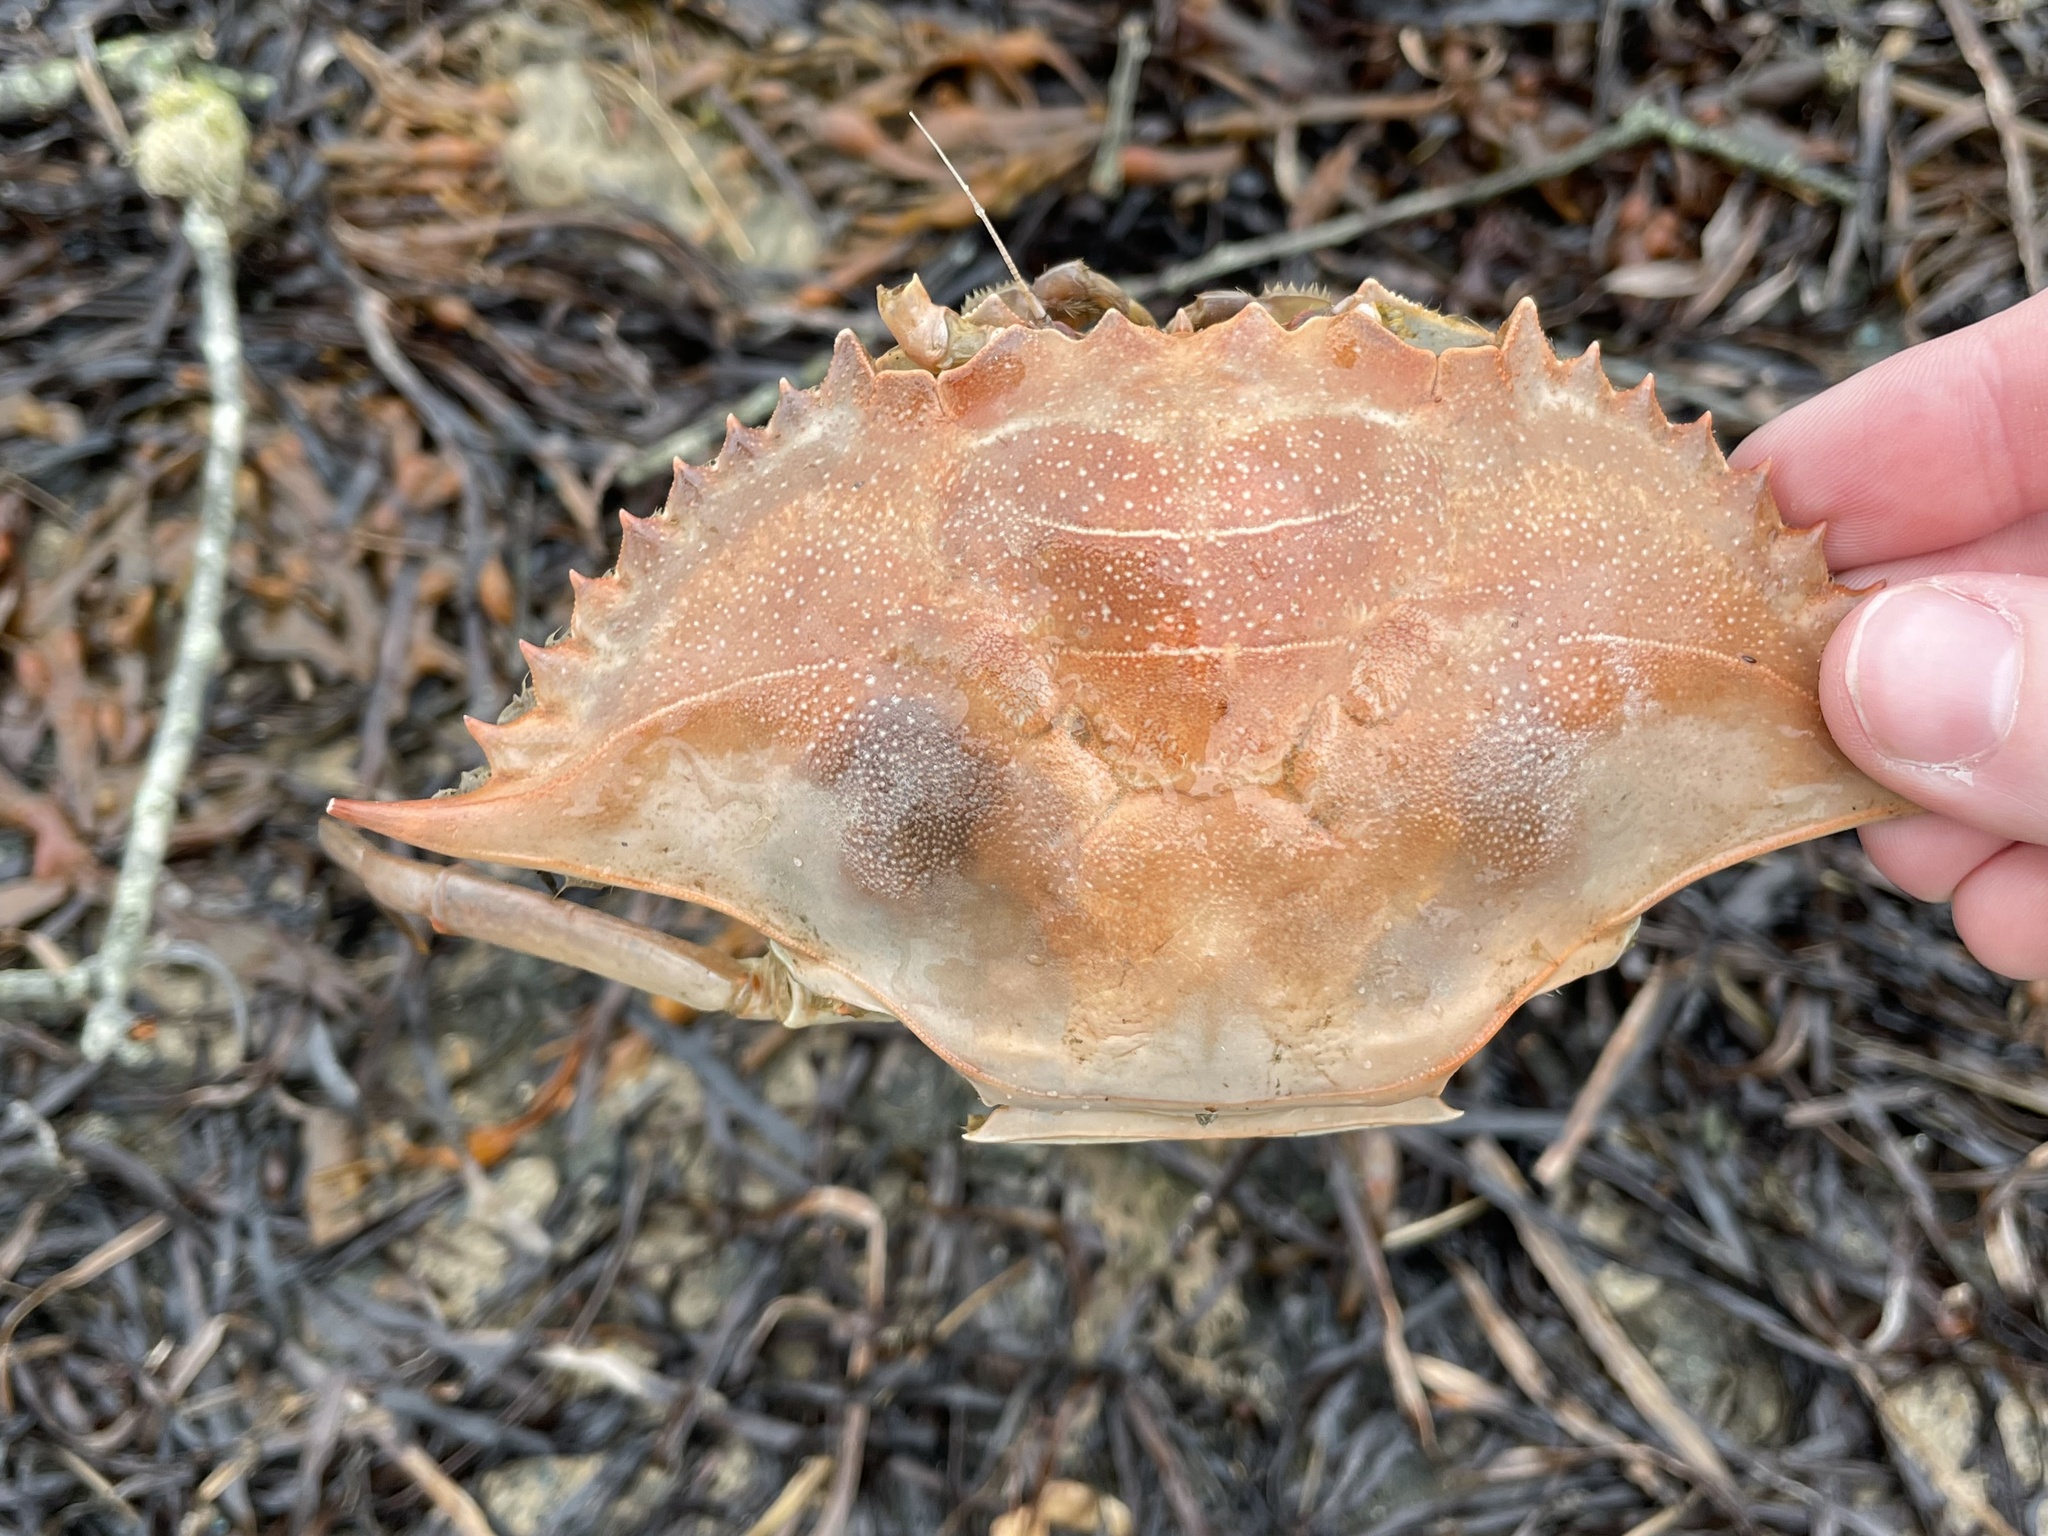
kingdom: Animalia
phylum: Arthropoda
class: Malacostraca
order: Decapoda
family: Portunidae
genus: Callinectes
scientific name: Callinectes sapidus
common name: Blue crab
